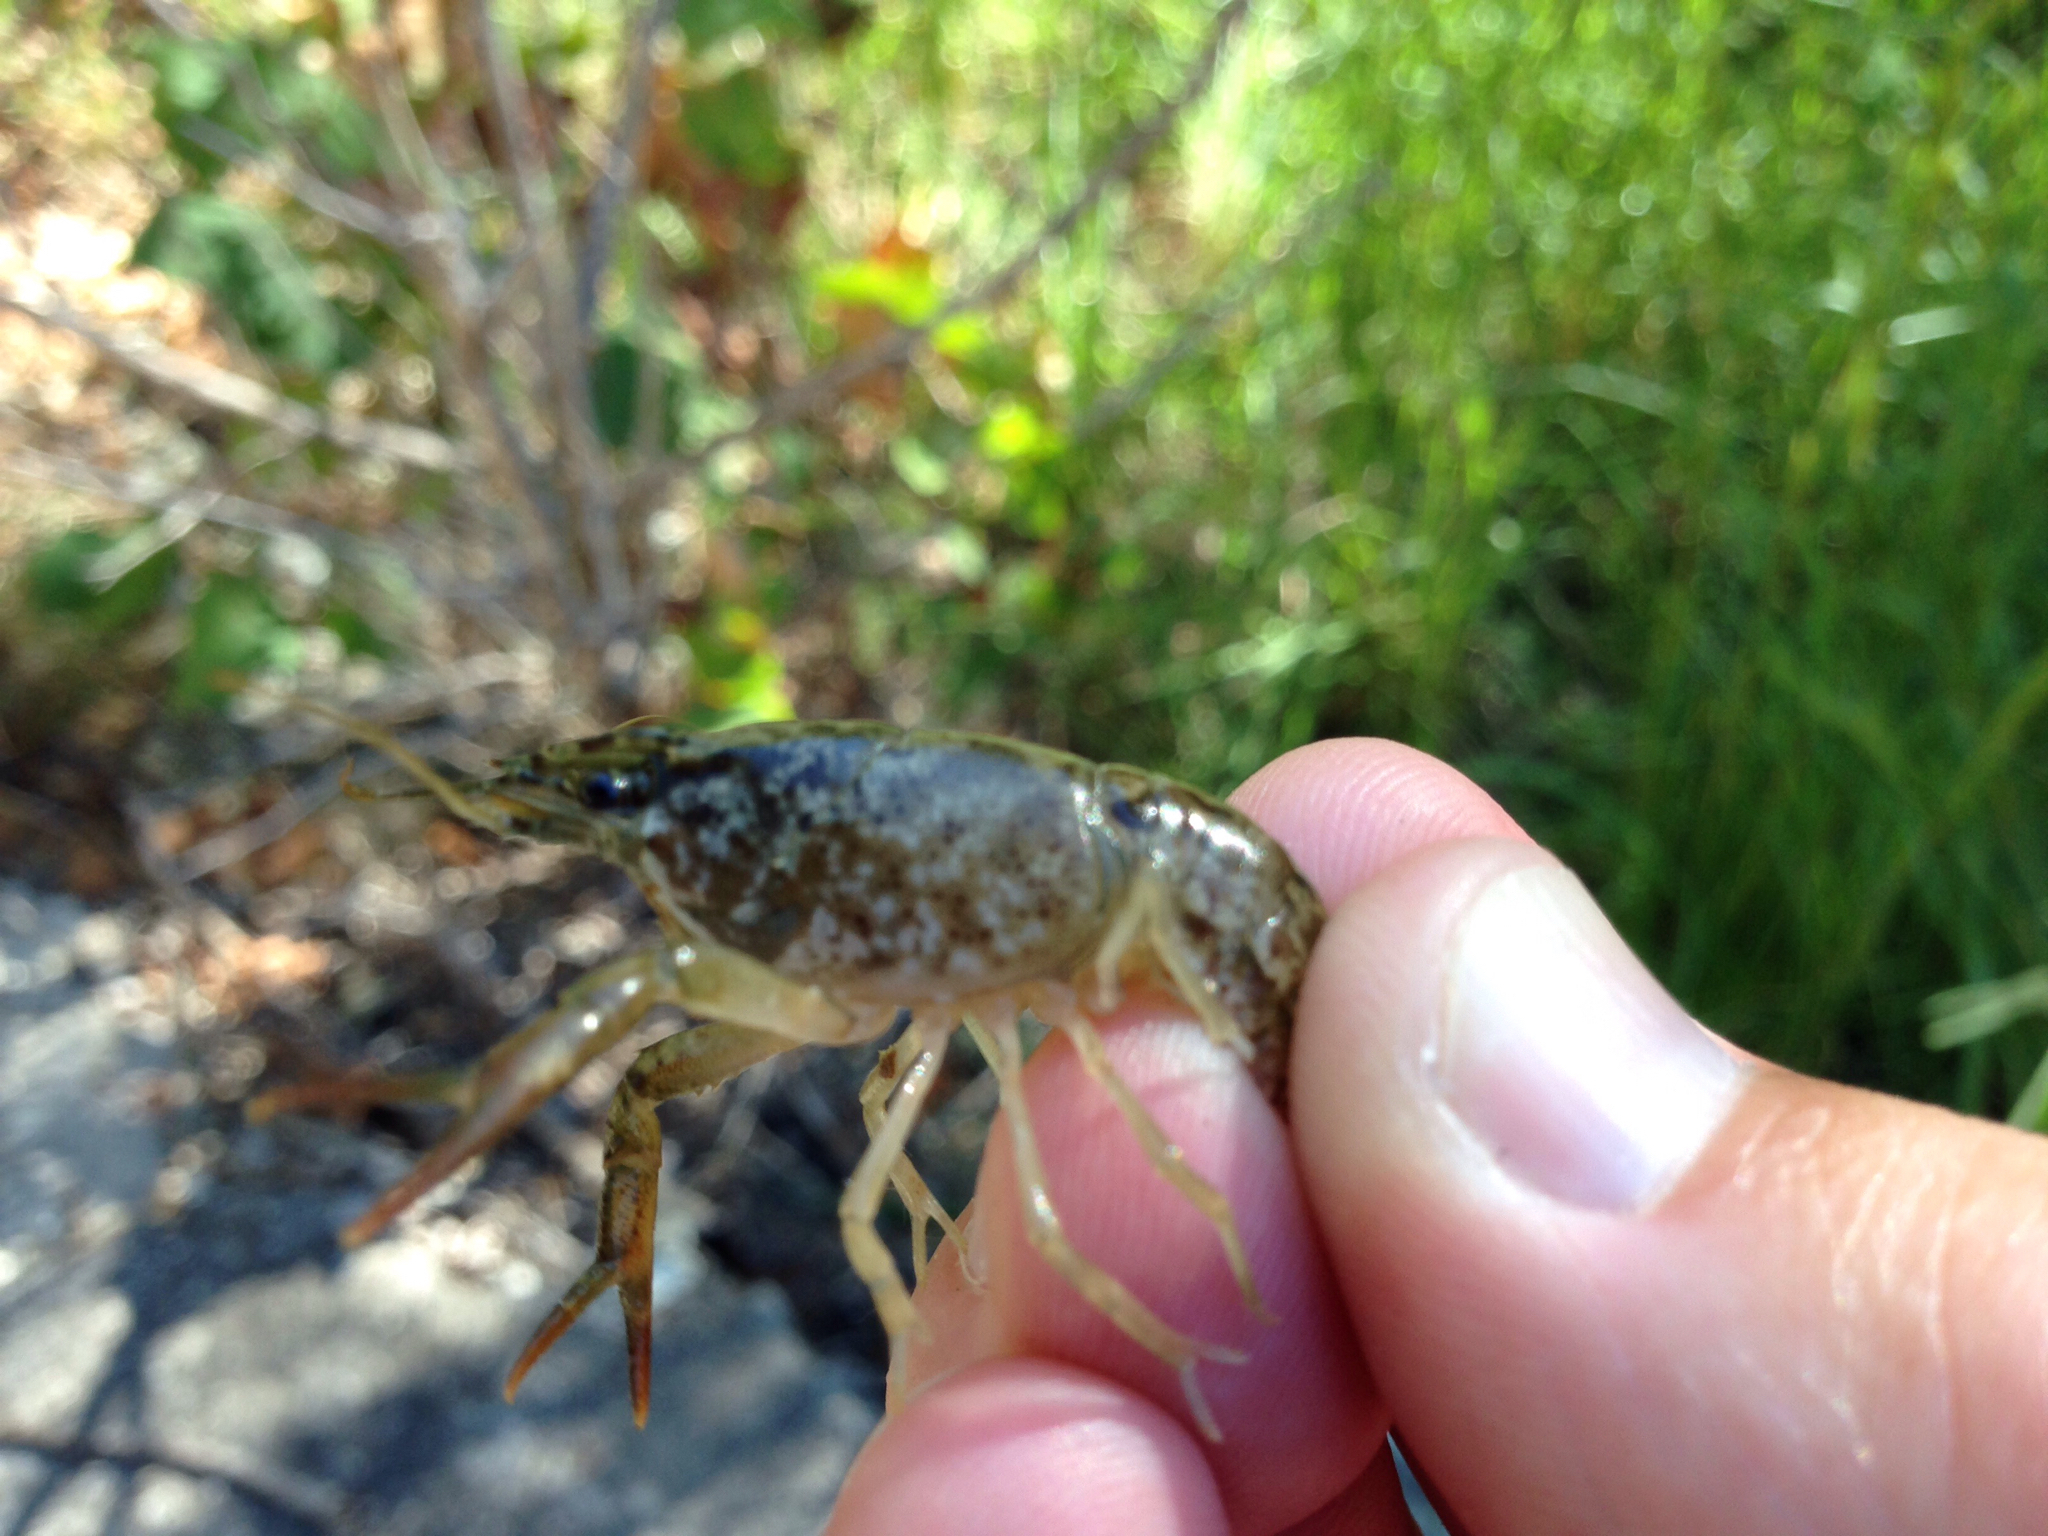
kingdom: Animalia
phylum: Arthropoda
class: Malacostraca
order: Decapoda
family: Cambaridae
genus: Procambarus
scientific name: Procambarus clarkii
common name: Red swamp crayfish
